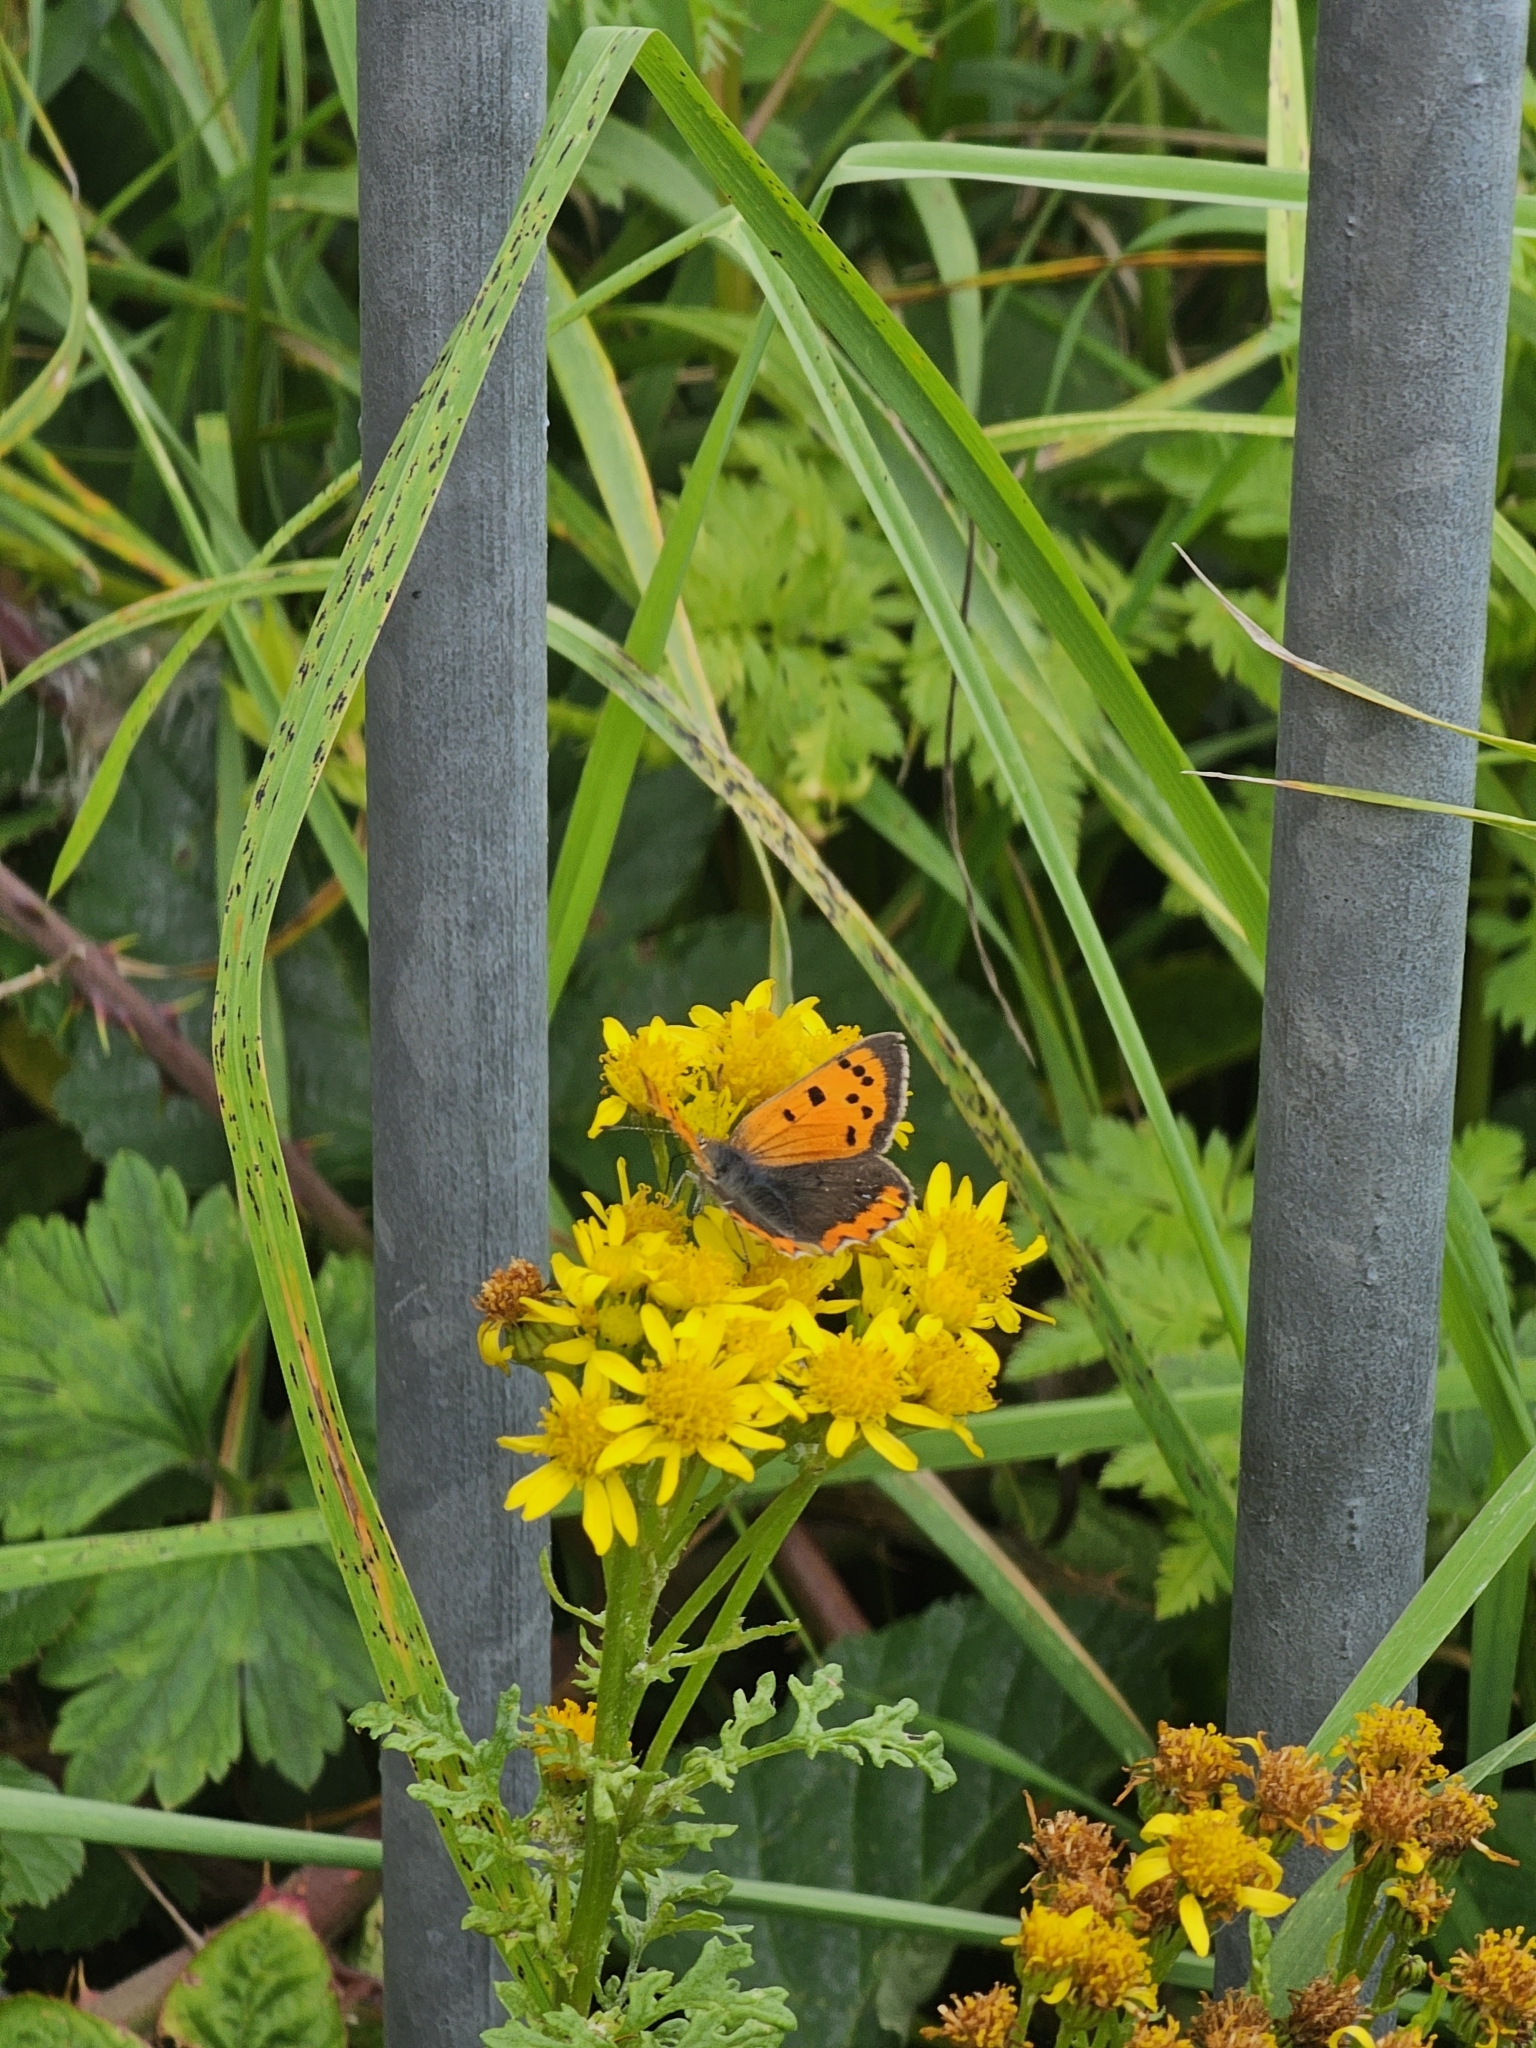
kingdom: Animalia
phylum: Arthropoda
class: Insecta
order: Lepidoptera
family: Lycaenidae
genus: Lycaena
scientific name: Lycaena phlaeas
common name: Small copper
